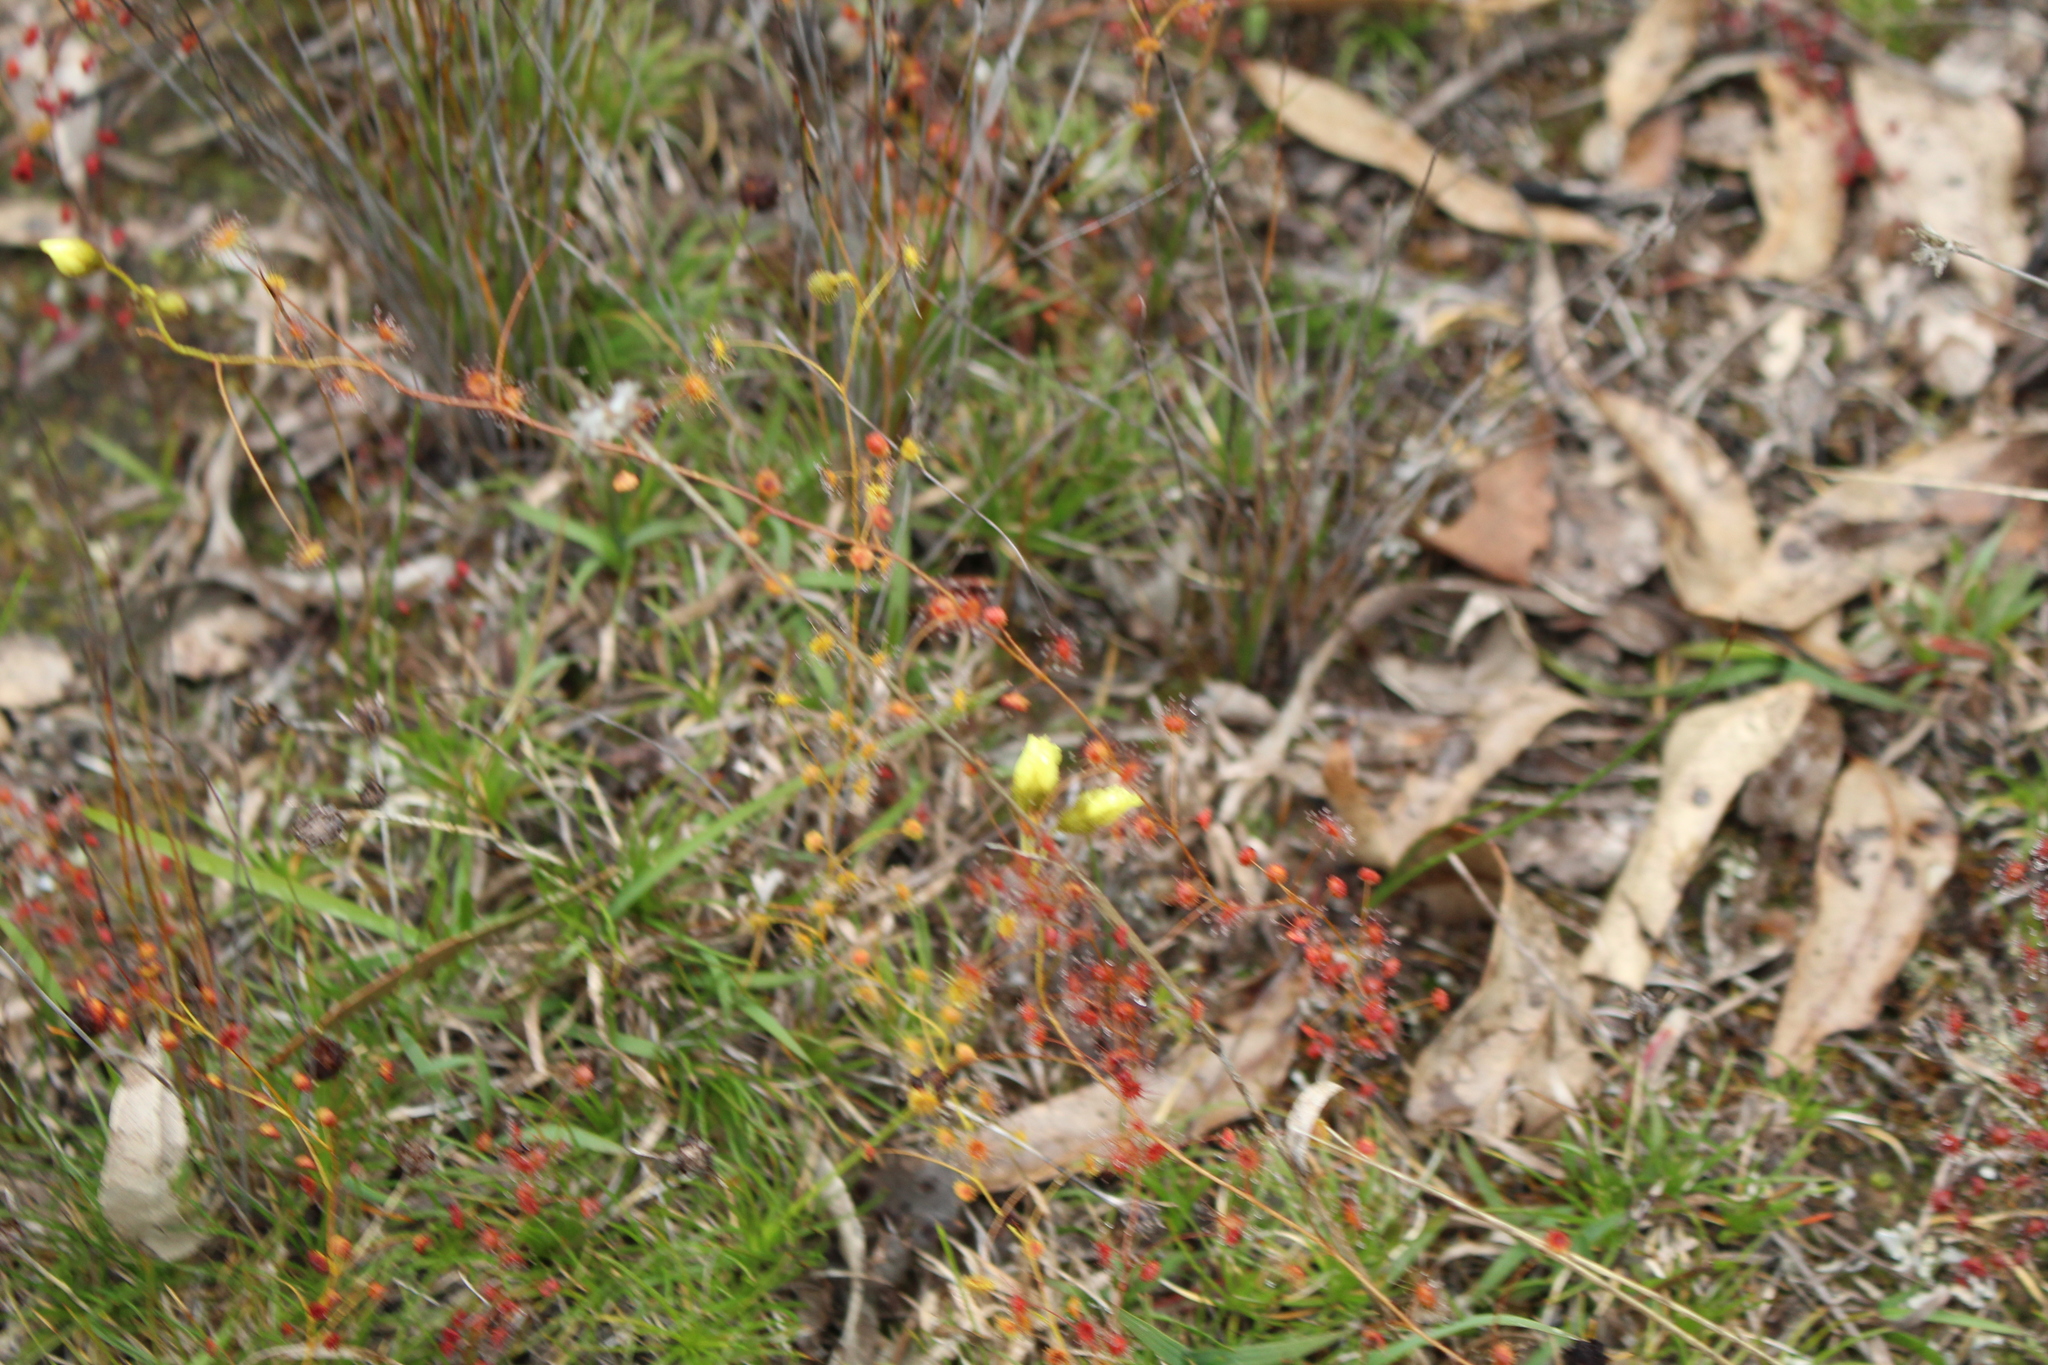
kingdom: Plantae
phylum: Tracheophyta
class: Magnoliopsida
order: Caryophyllales
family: Droseraceae
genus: Drosera
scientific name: Drosera subhirtella
